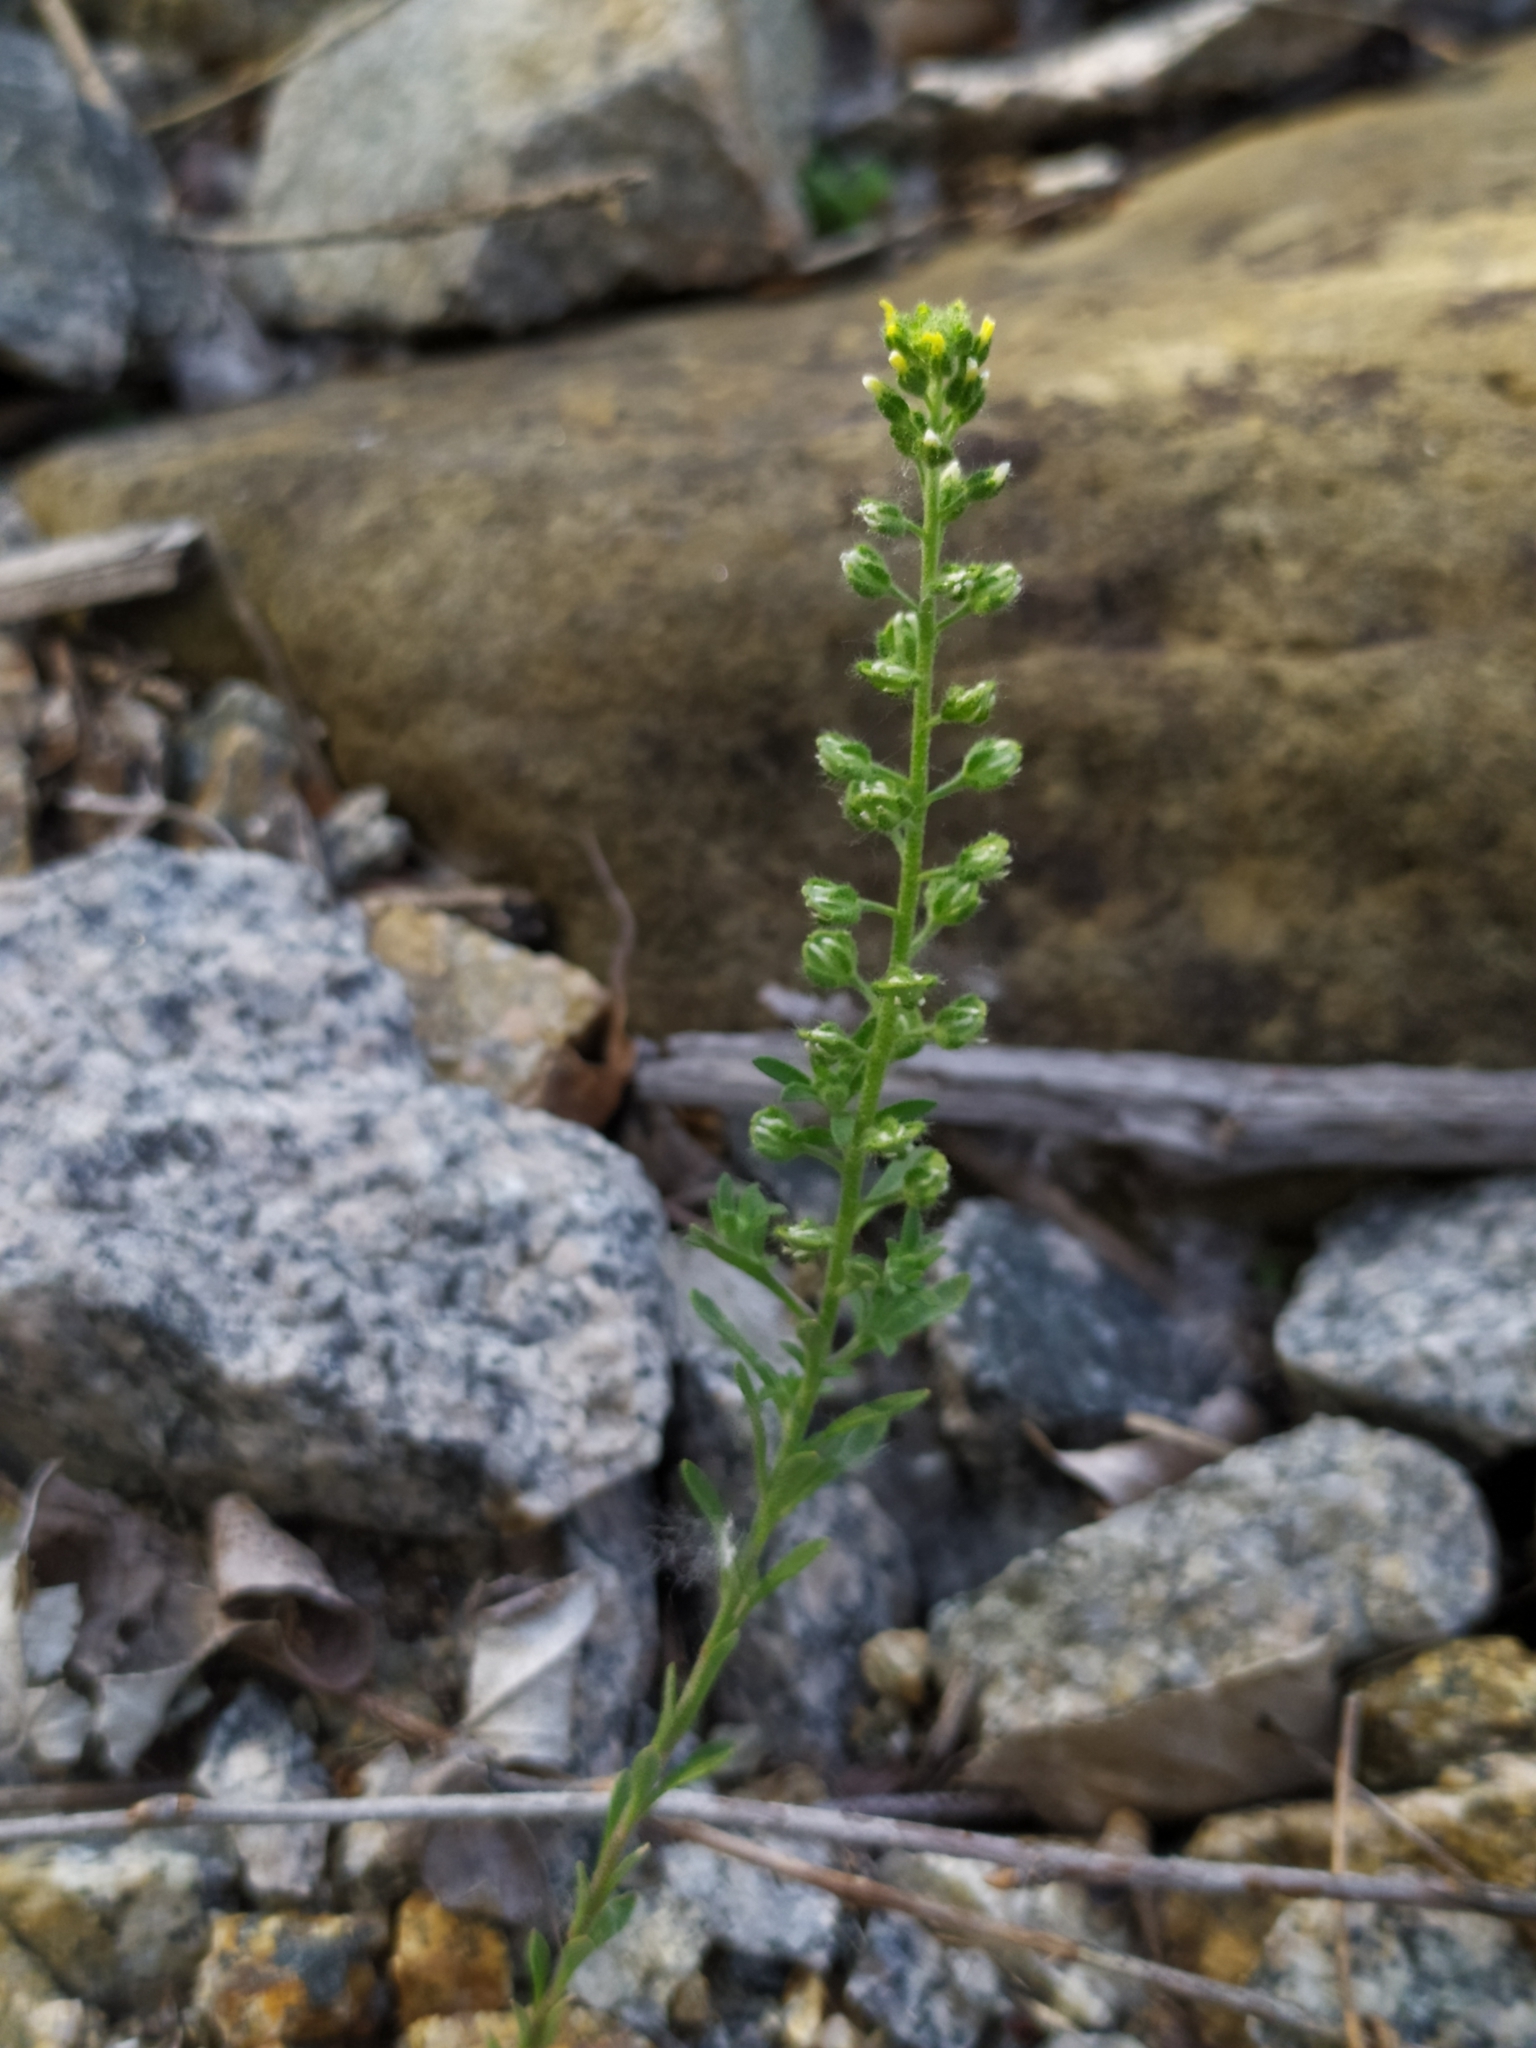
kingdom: Plantae
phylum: Tracheophyta
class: Magnoliopsida
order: Brassicales
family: Brassicaceae
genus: Alyssum
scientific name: Alyssum alyssoides
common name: Small alison
